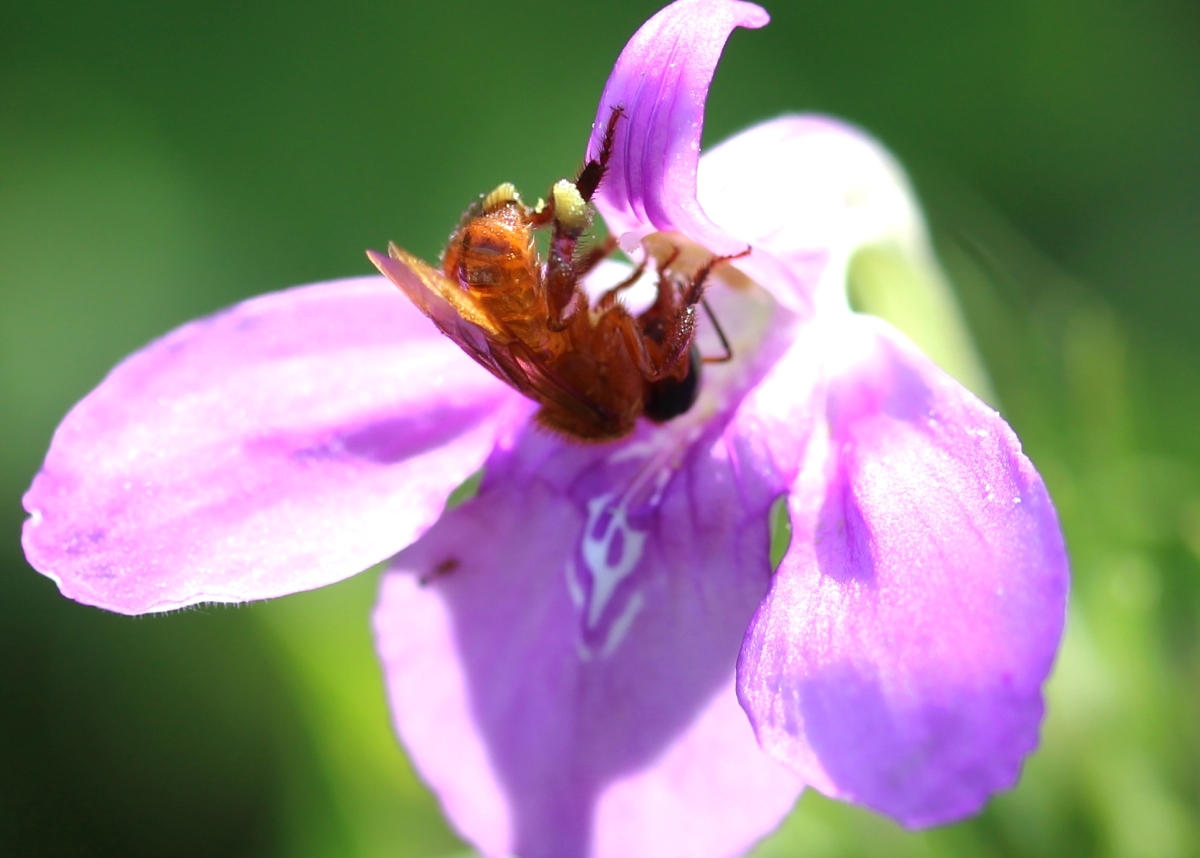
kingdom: Animalia
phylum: Arthropoda
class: Insecta
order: Hymenoptera
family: Apidae
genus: Trigona
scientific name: Trigona williana
